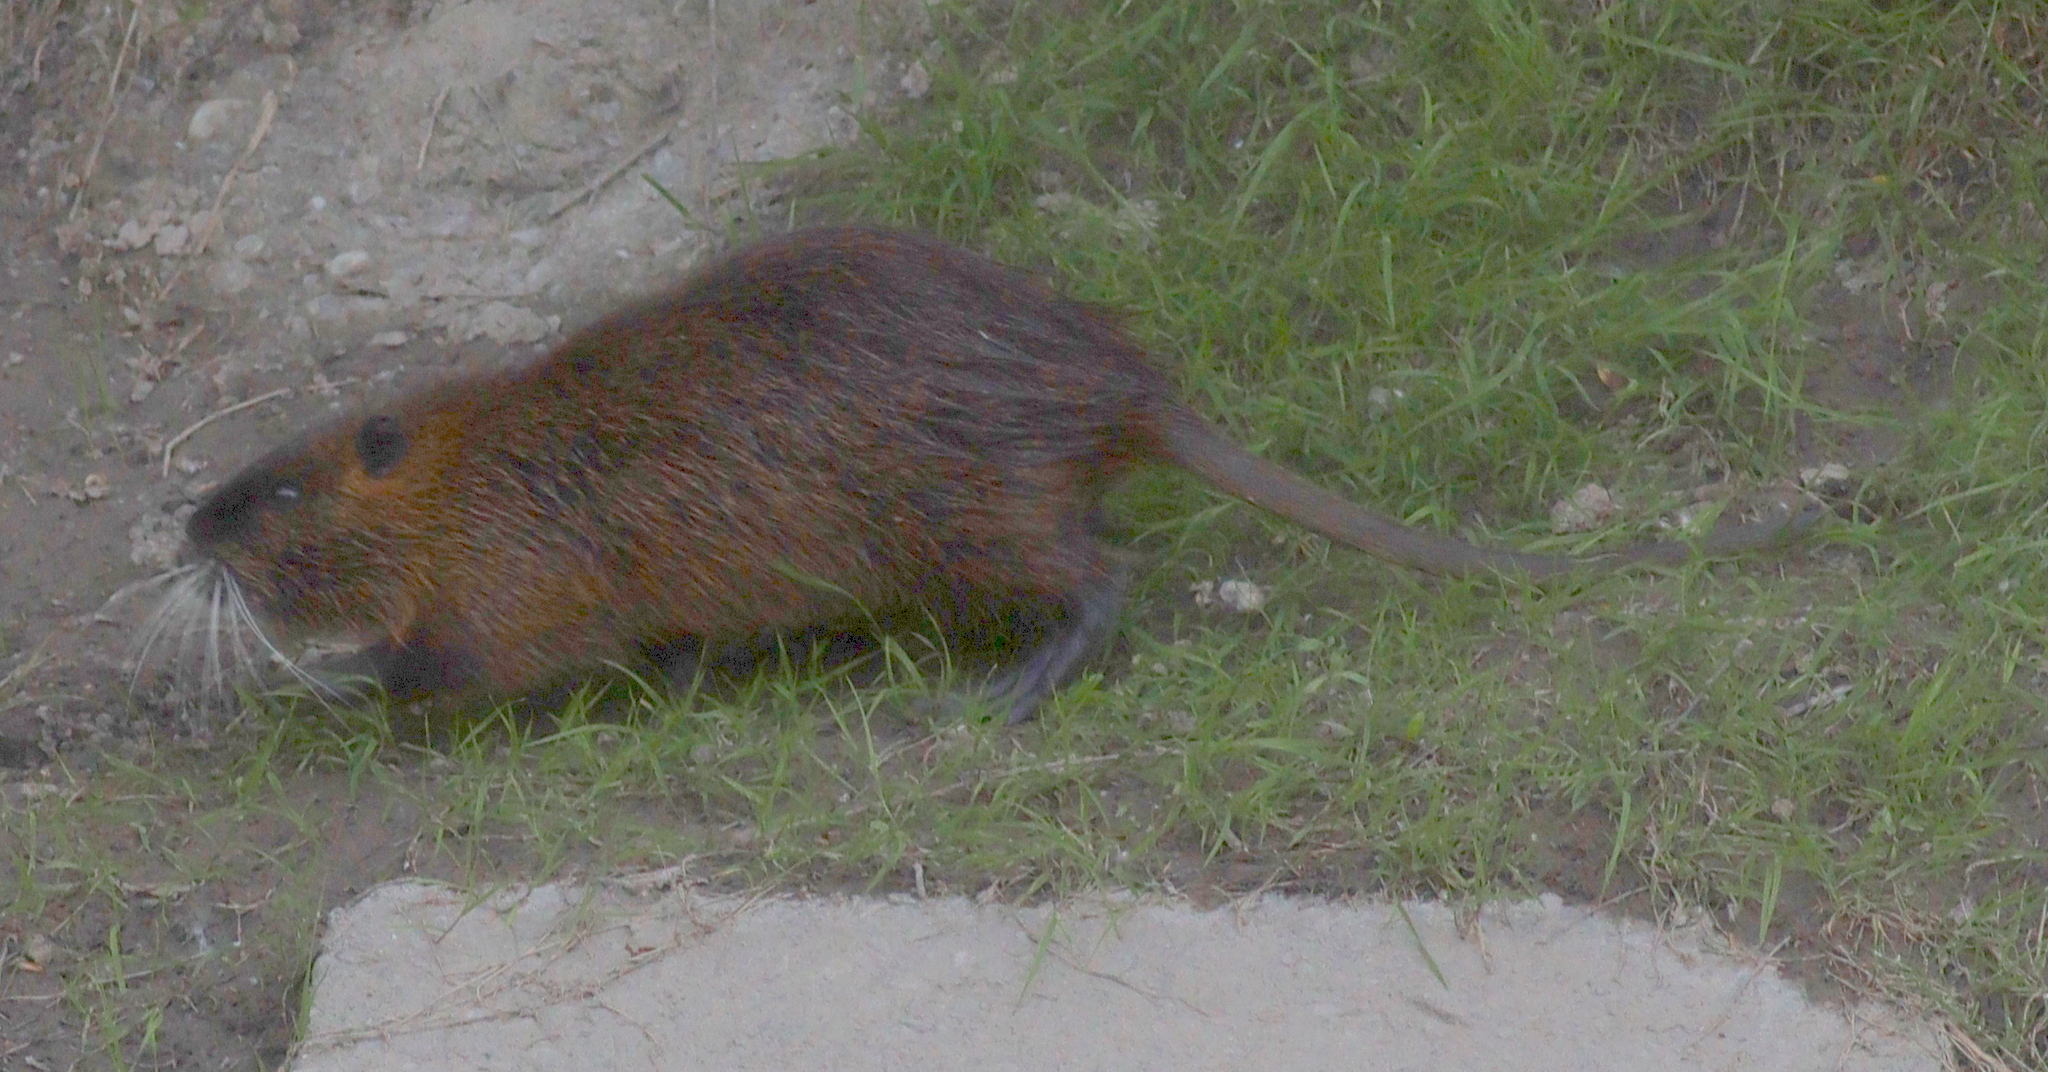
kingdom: Animalia
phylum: Chordata
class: Mammalia
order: Rodentia
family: Myocastoridae
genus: Myocastor
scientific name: Myocastor coypus
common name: Coypu
